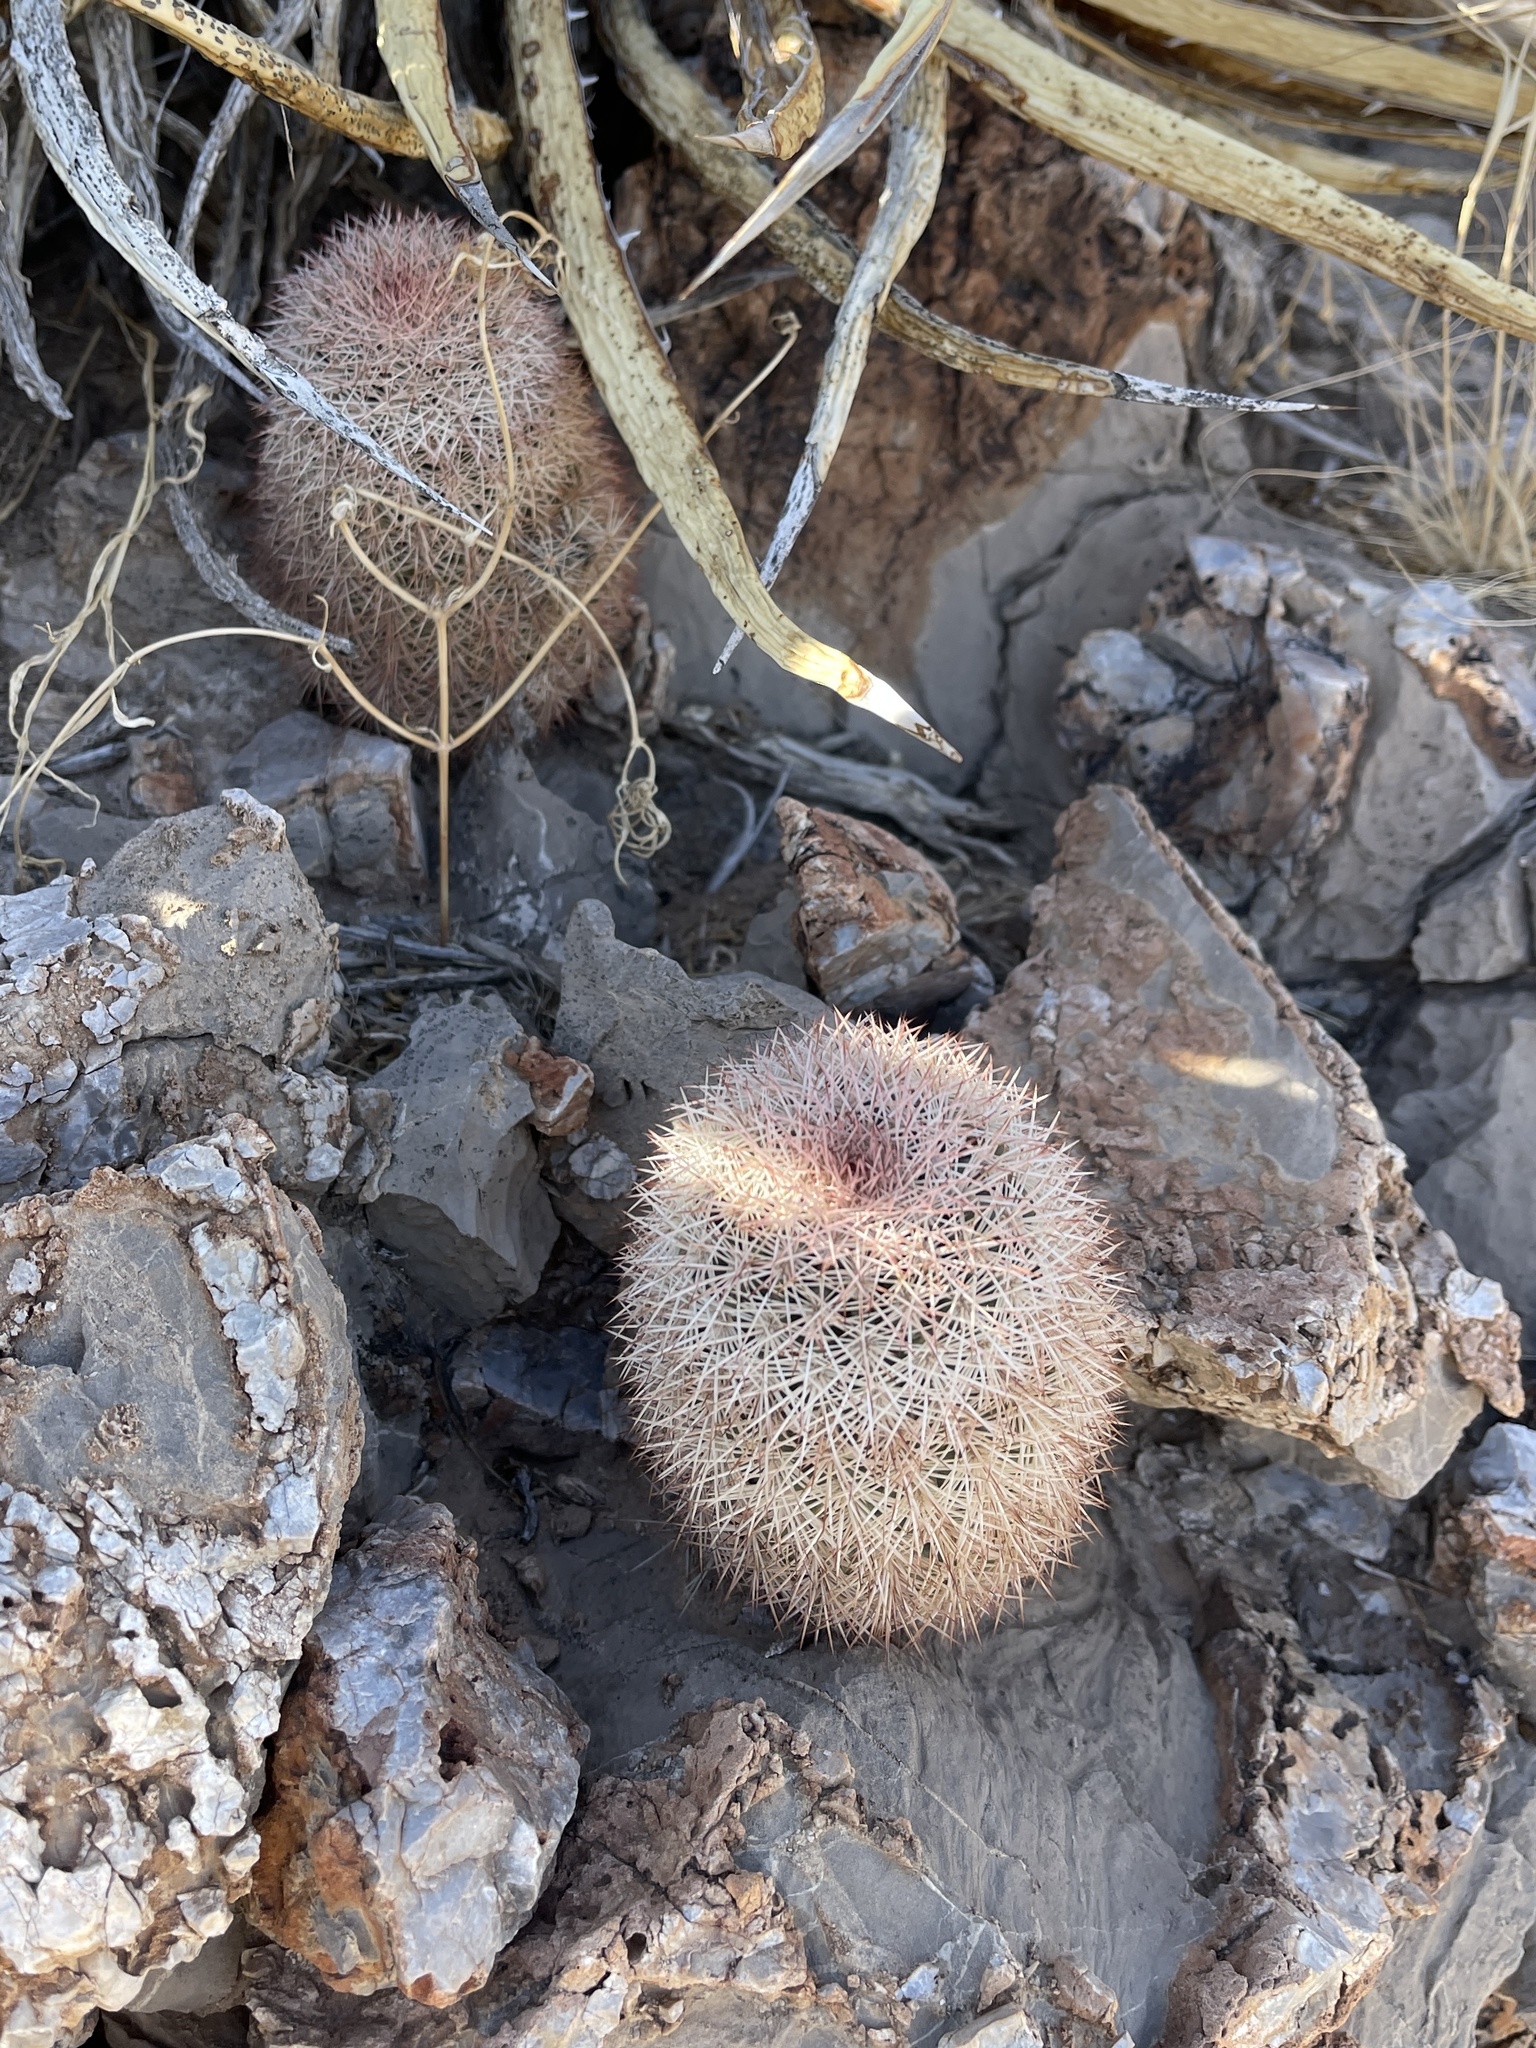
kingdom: Plantae
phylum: Tracheophyta
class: Magnoliopsida
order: Caryophyllales
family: Cactaceae
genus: Echinocereus
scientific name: Echinocereus dasyacanthus
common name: Spiny hedgehog cactus
